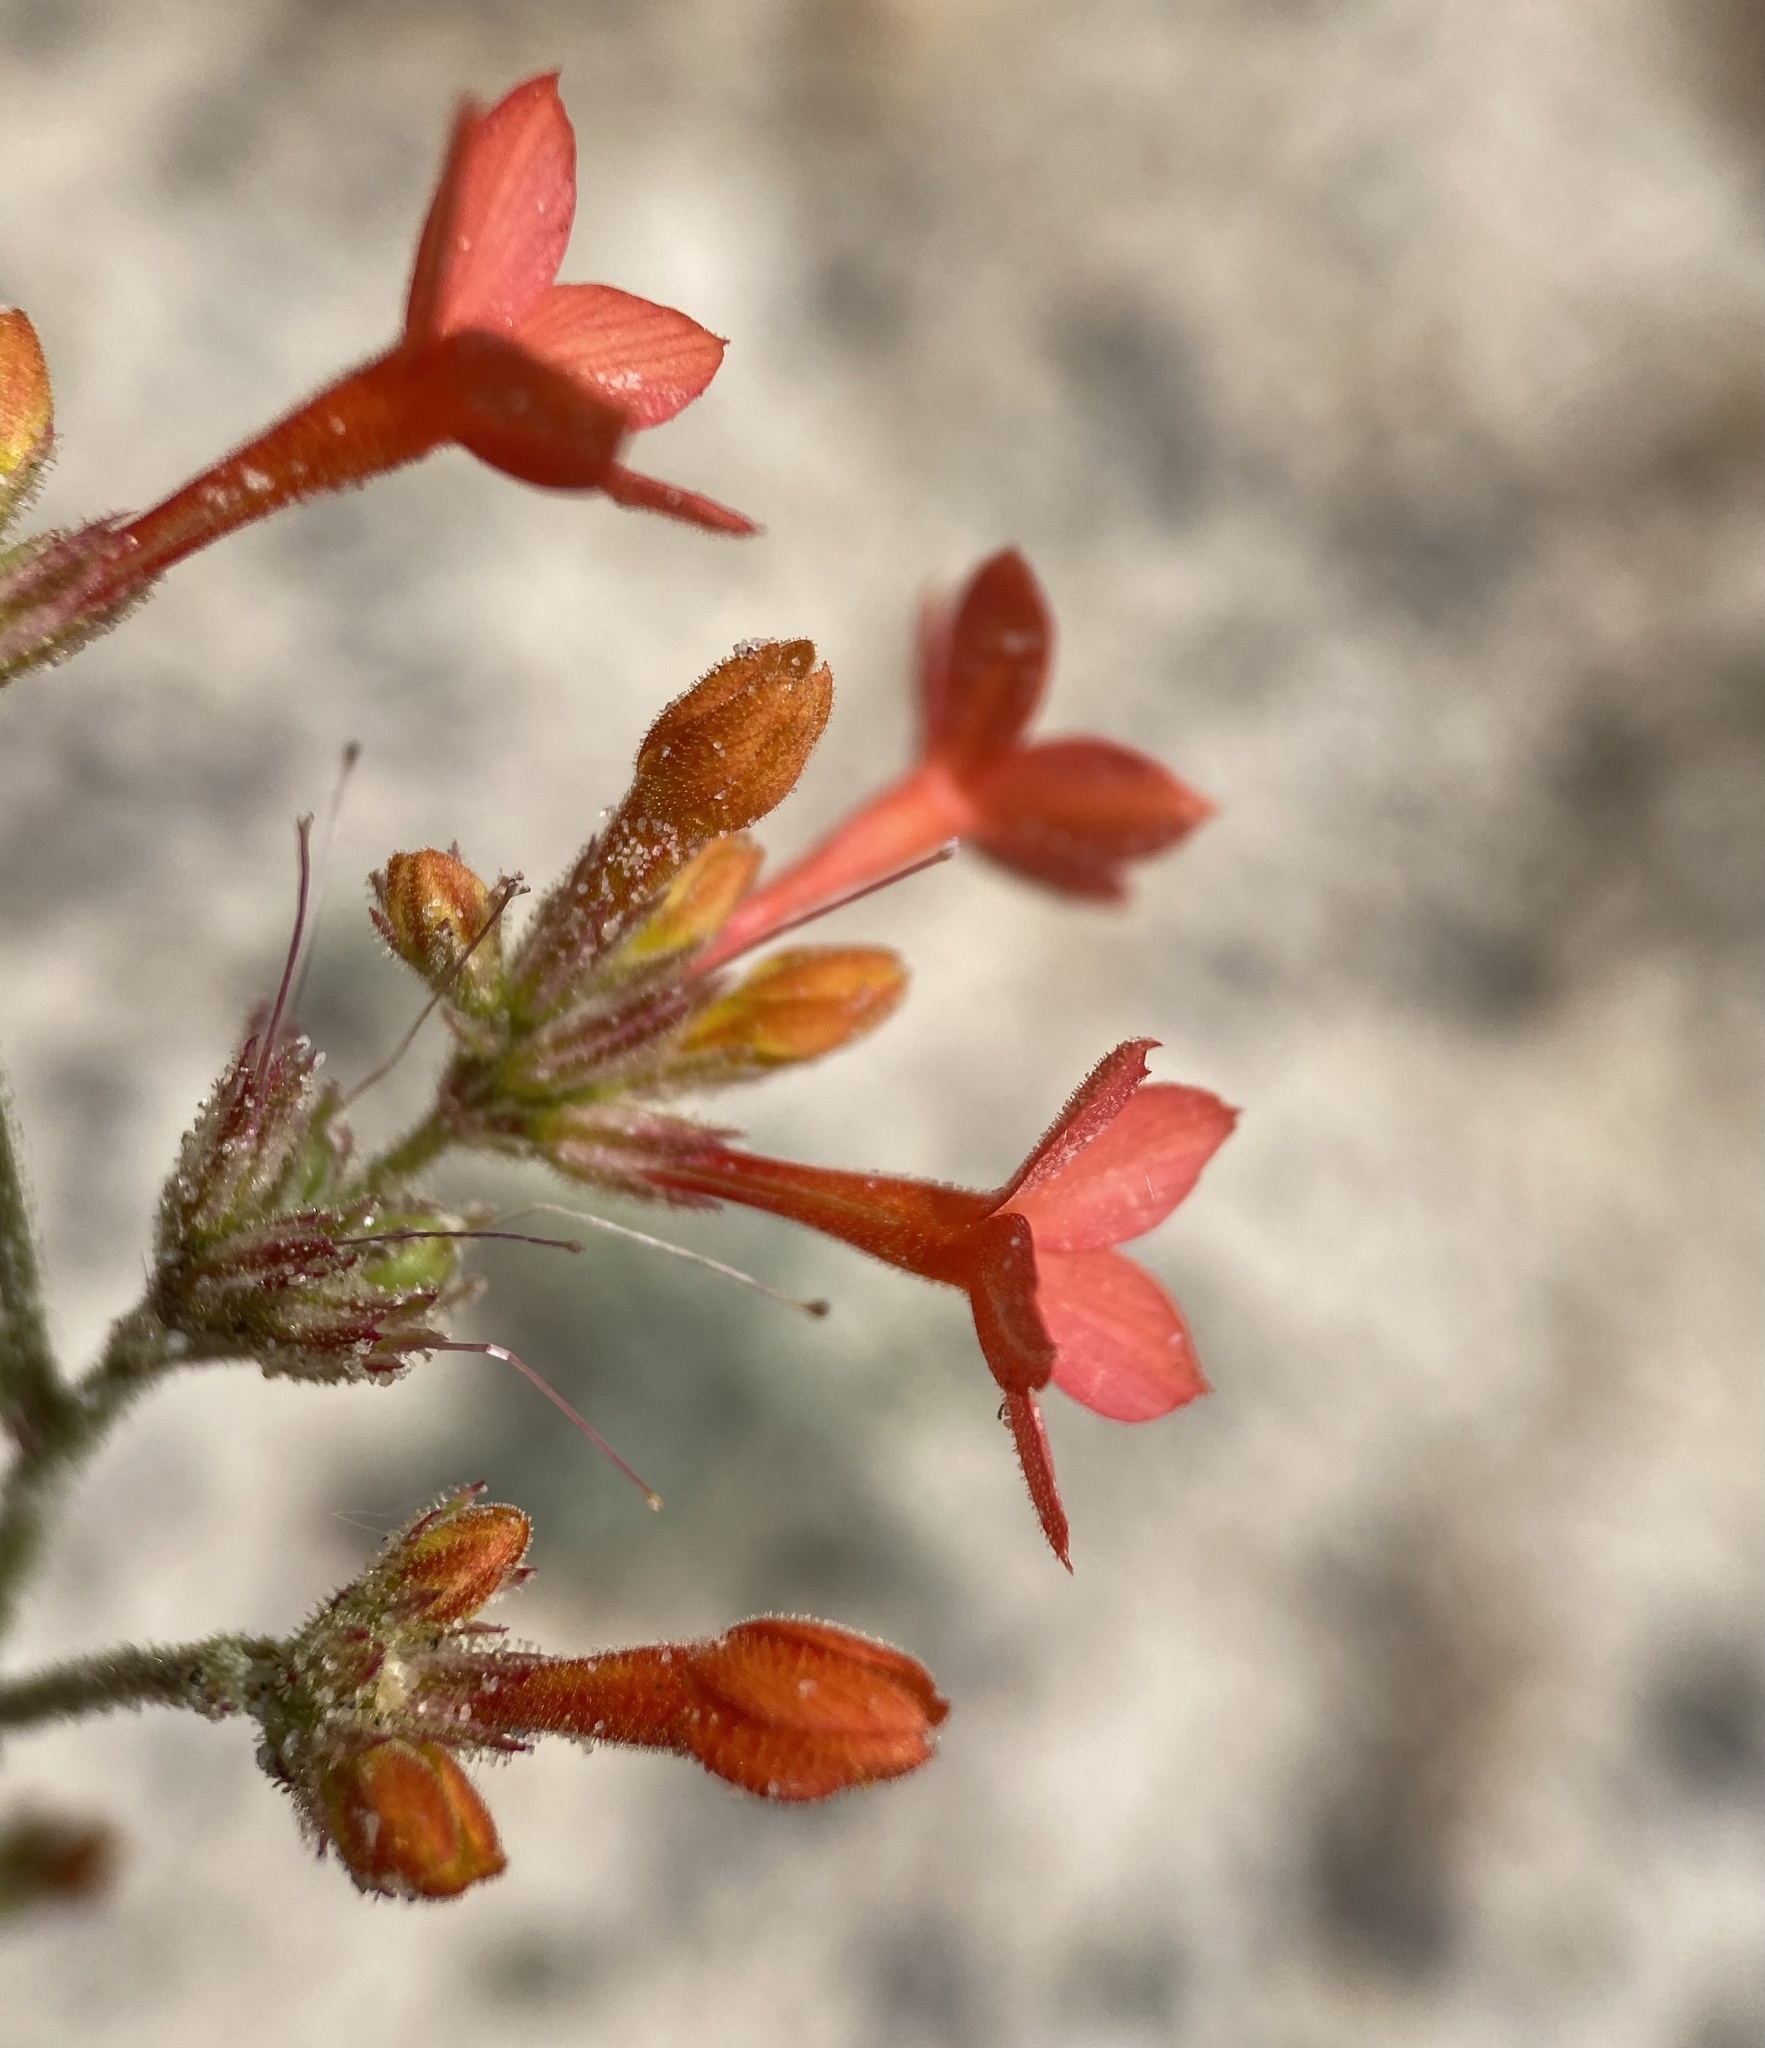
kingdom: Plantae
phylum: Tracheophyta
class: Magnoliopsida
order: Ericales
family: Polemoniaceae
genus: Aliciella
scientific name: Aliciella subnuda
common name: Coral gilia
